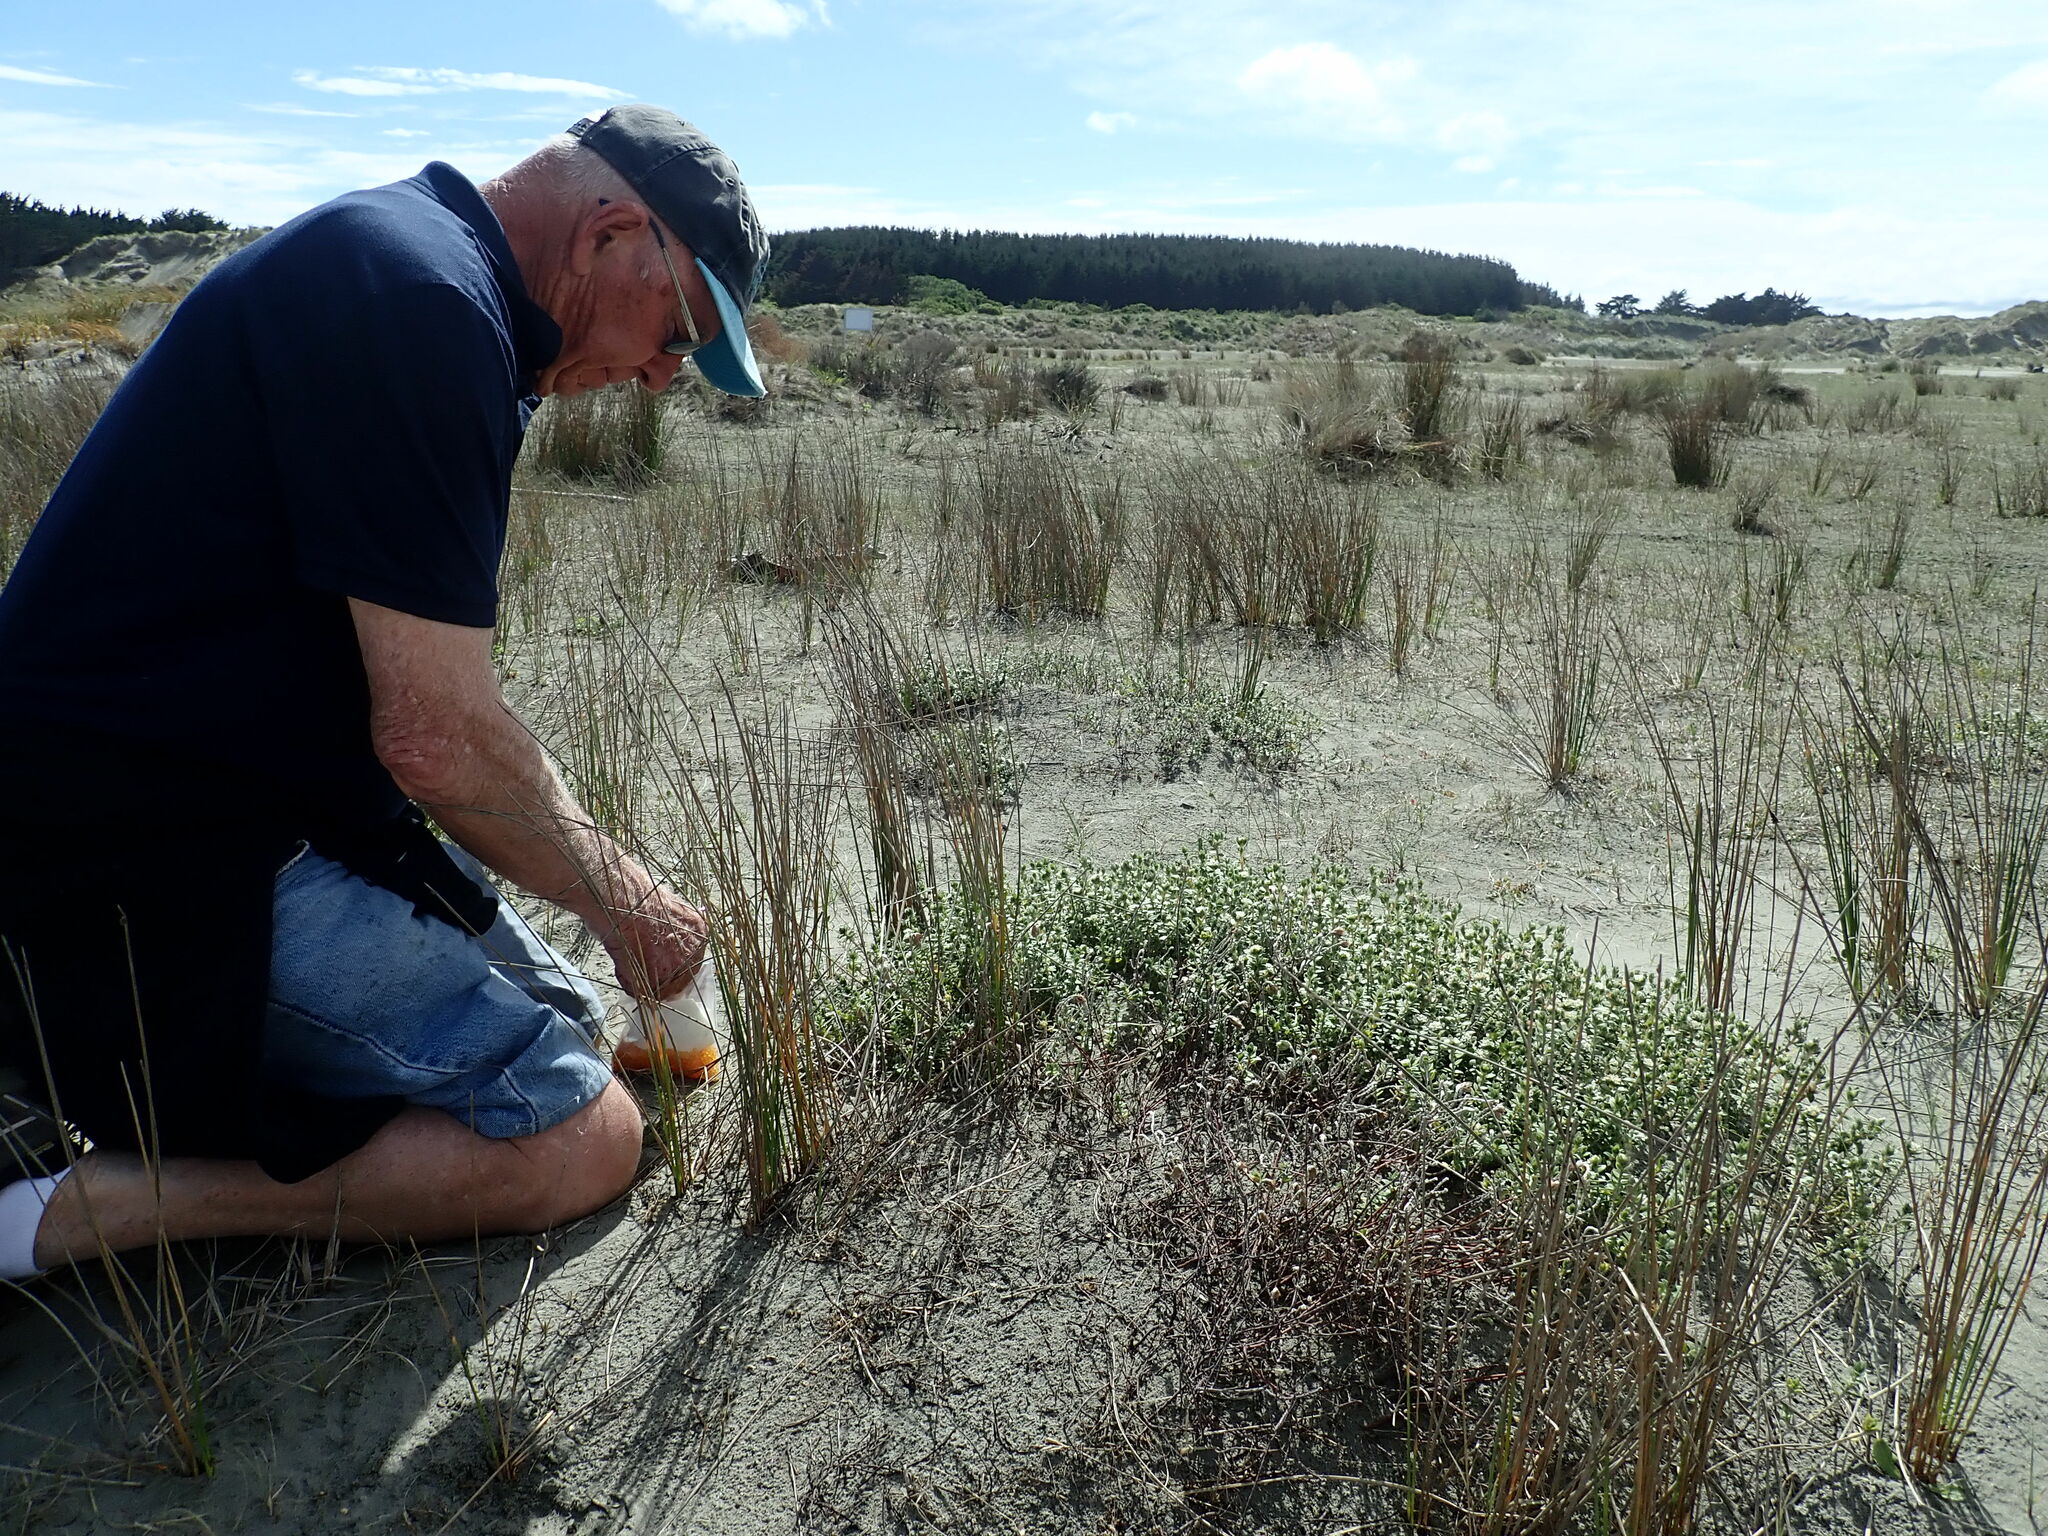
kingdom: Plantae
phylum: Tracheophyta
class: Magnoliopsida
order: Malvales
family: Thymelaeaceae
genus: Pimelea
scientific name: Pimelea villosa
